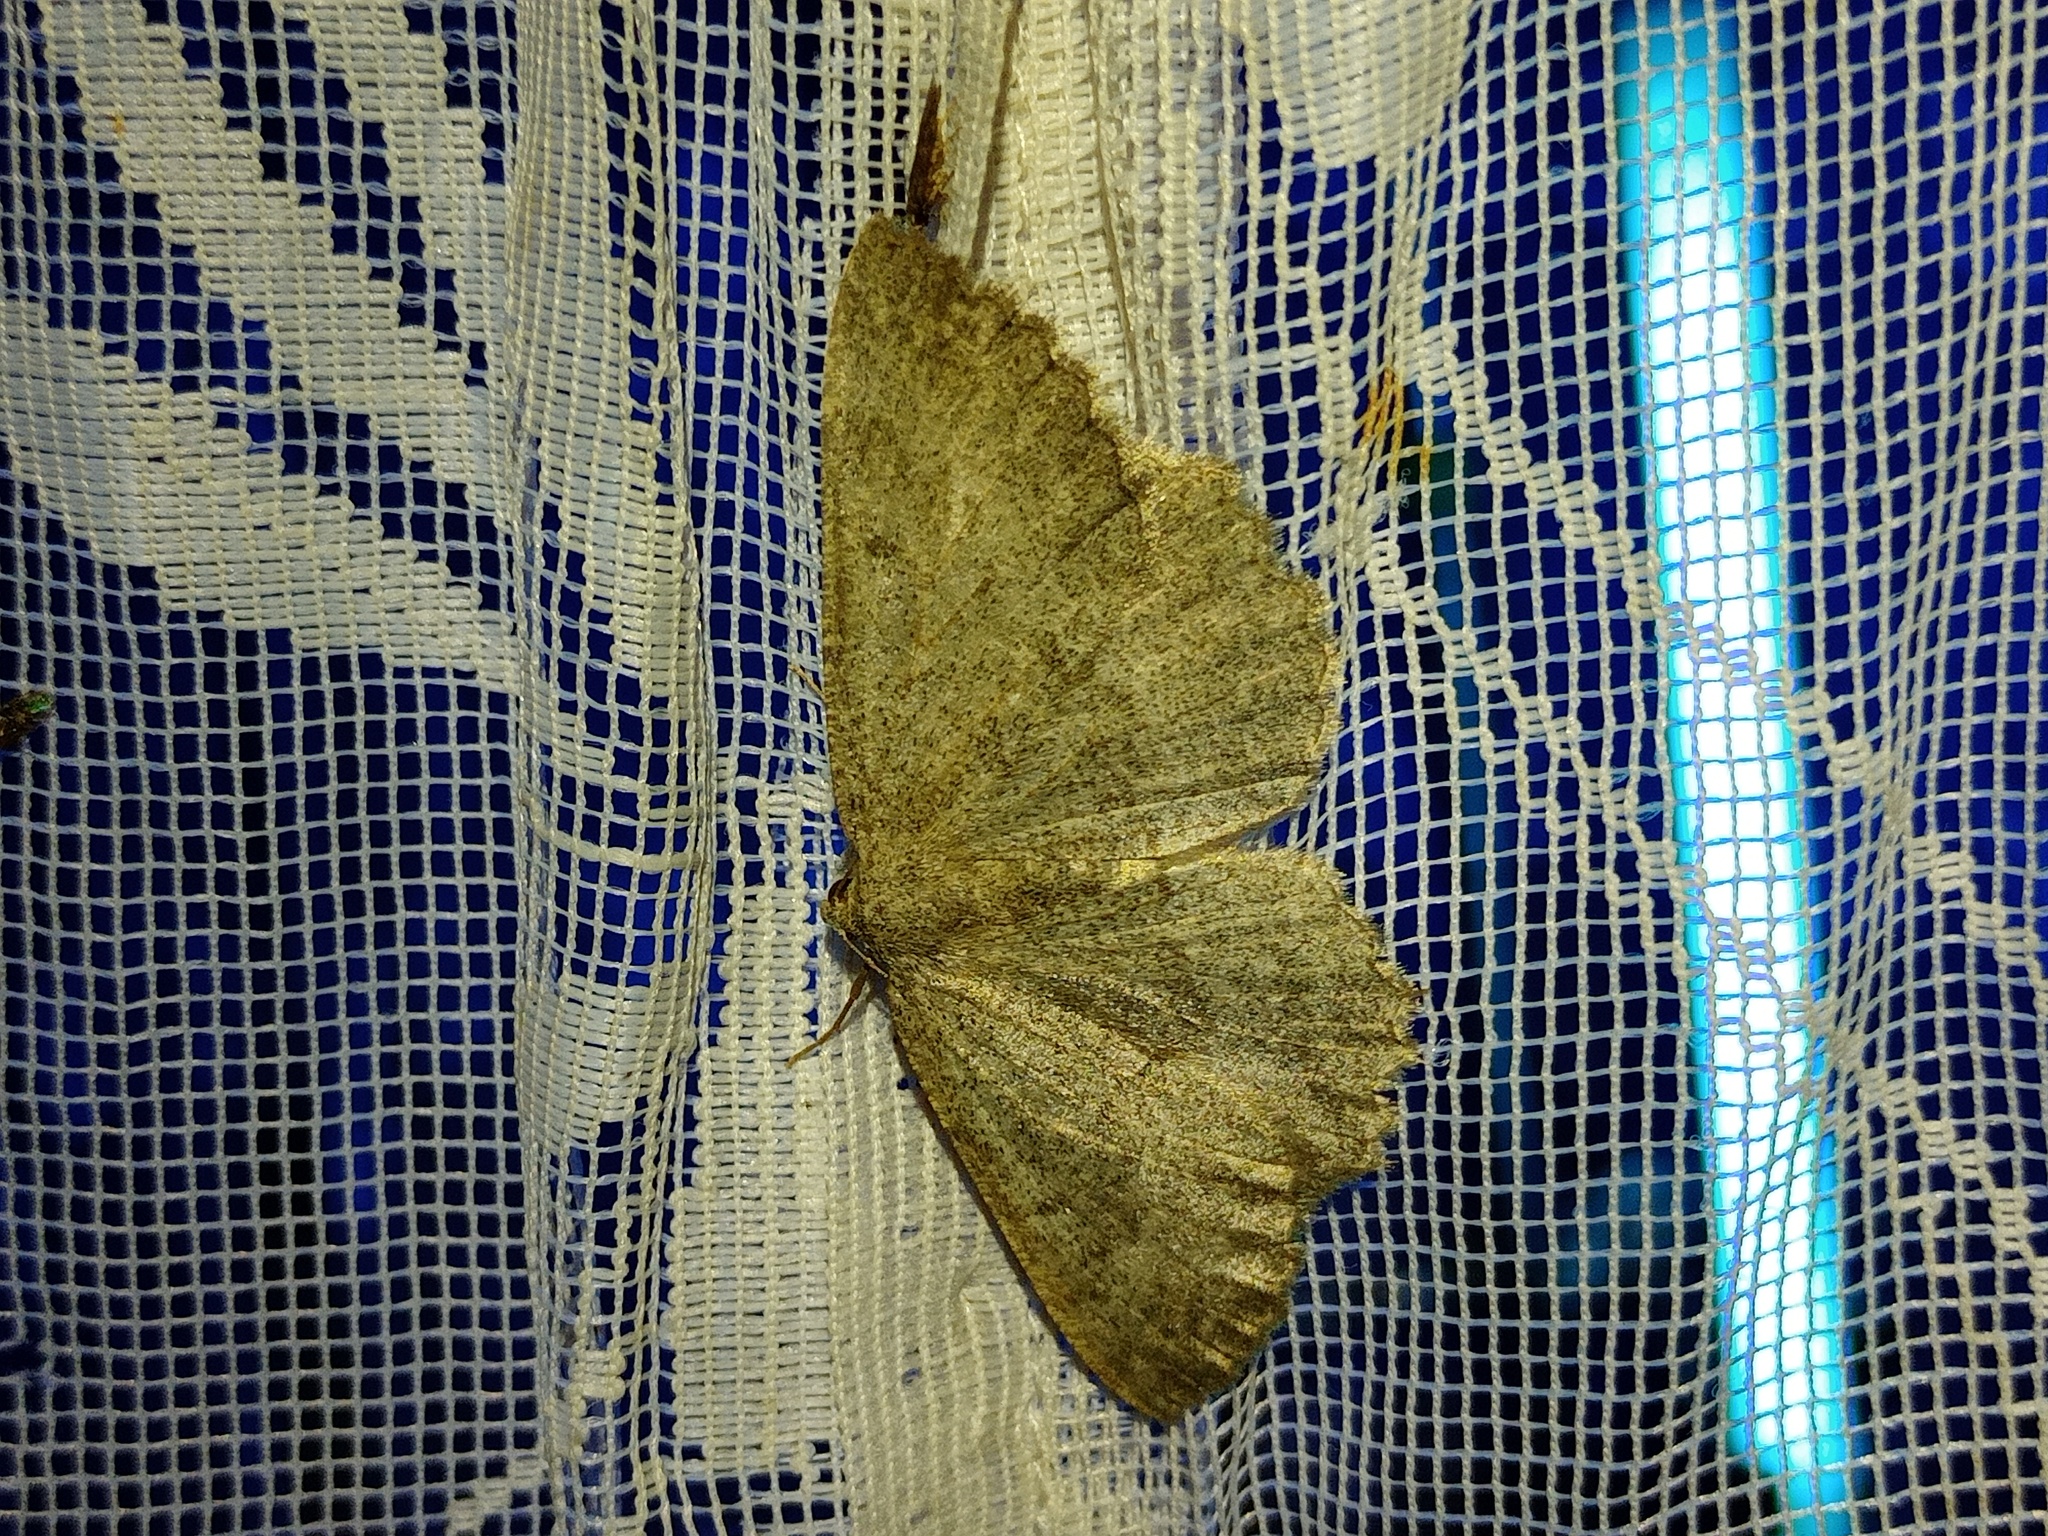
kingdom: Animalia
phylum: Arthropoda
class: Insecta
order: Lepidoptera
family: Geometridae
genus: Gnophos
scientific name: Gnophos furvata
